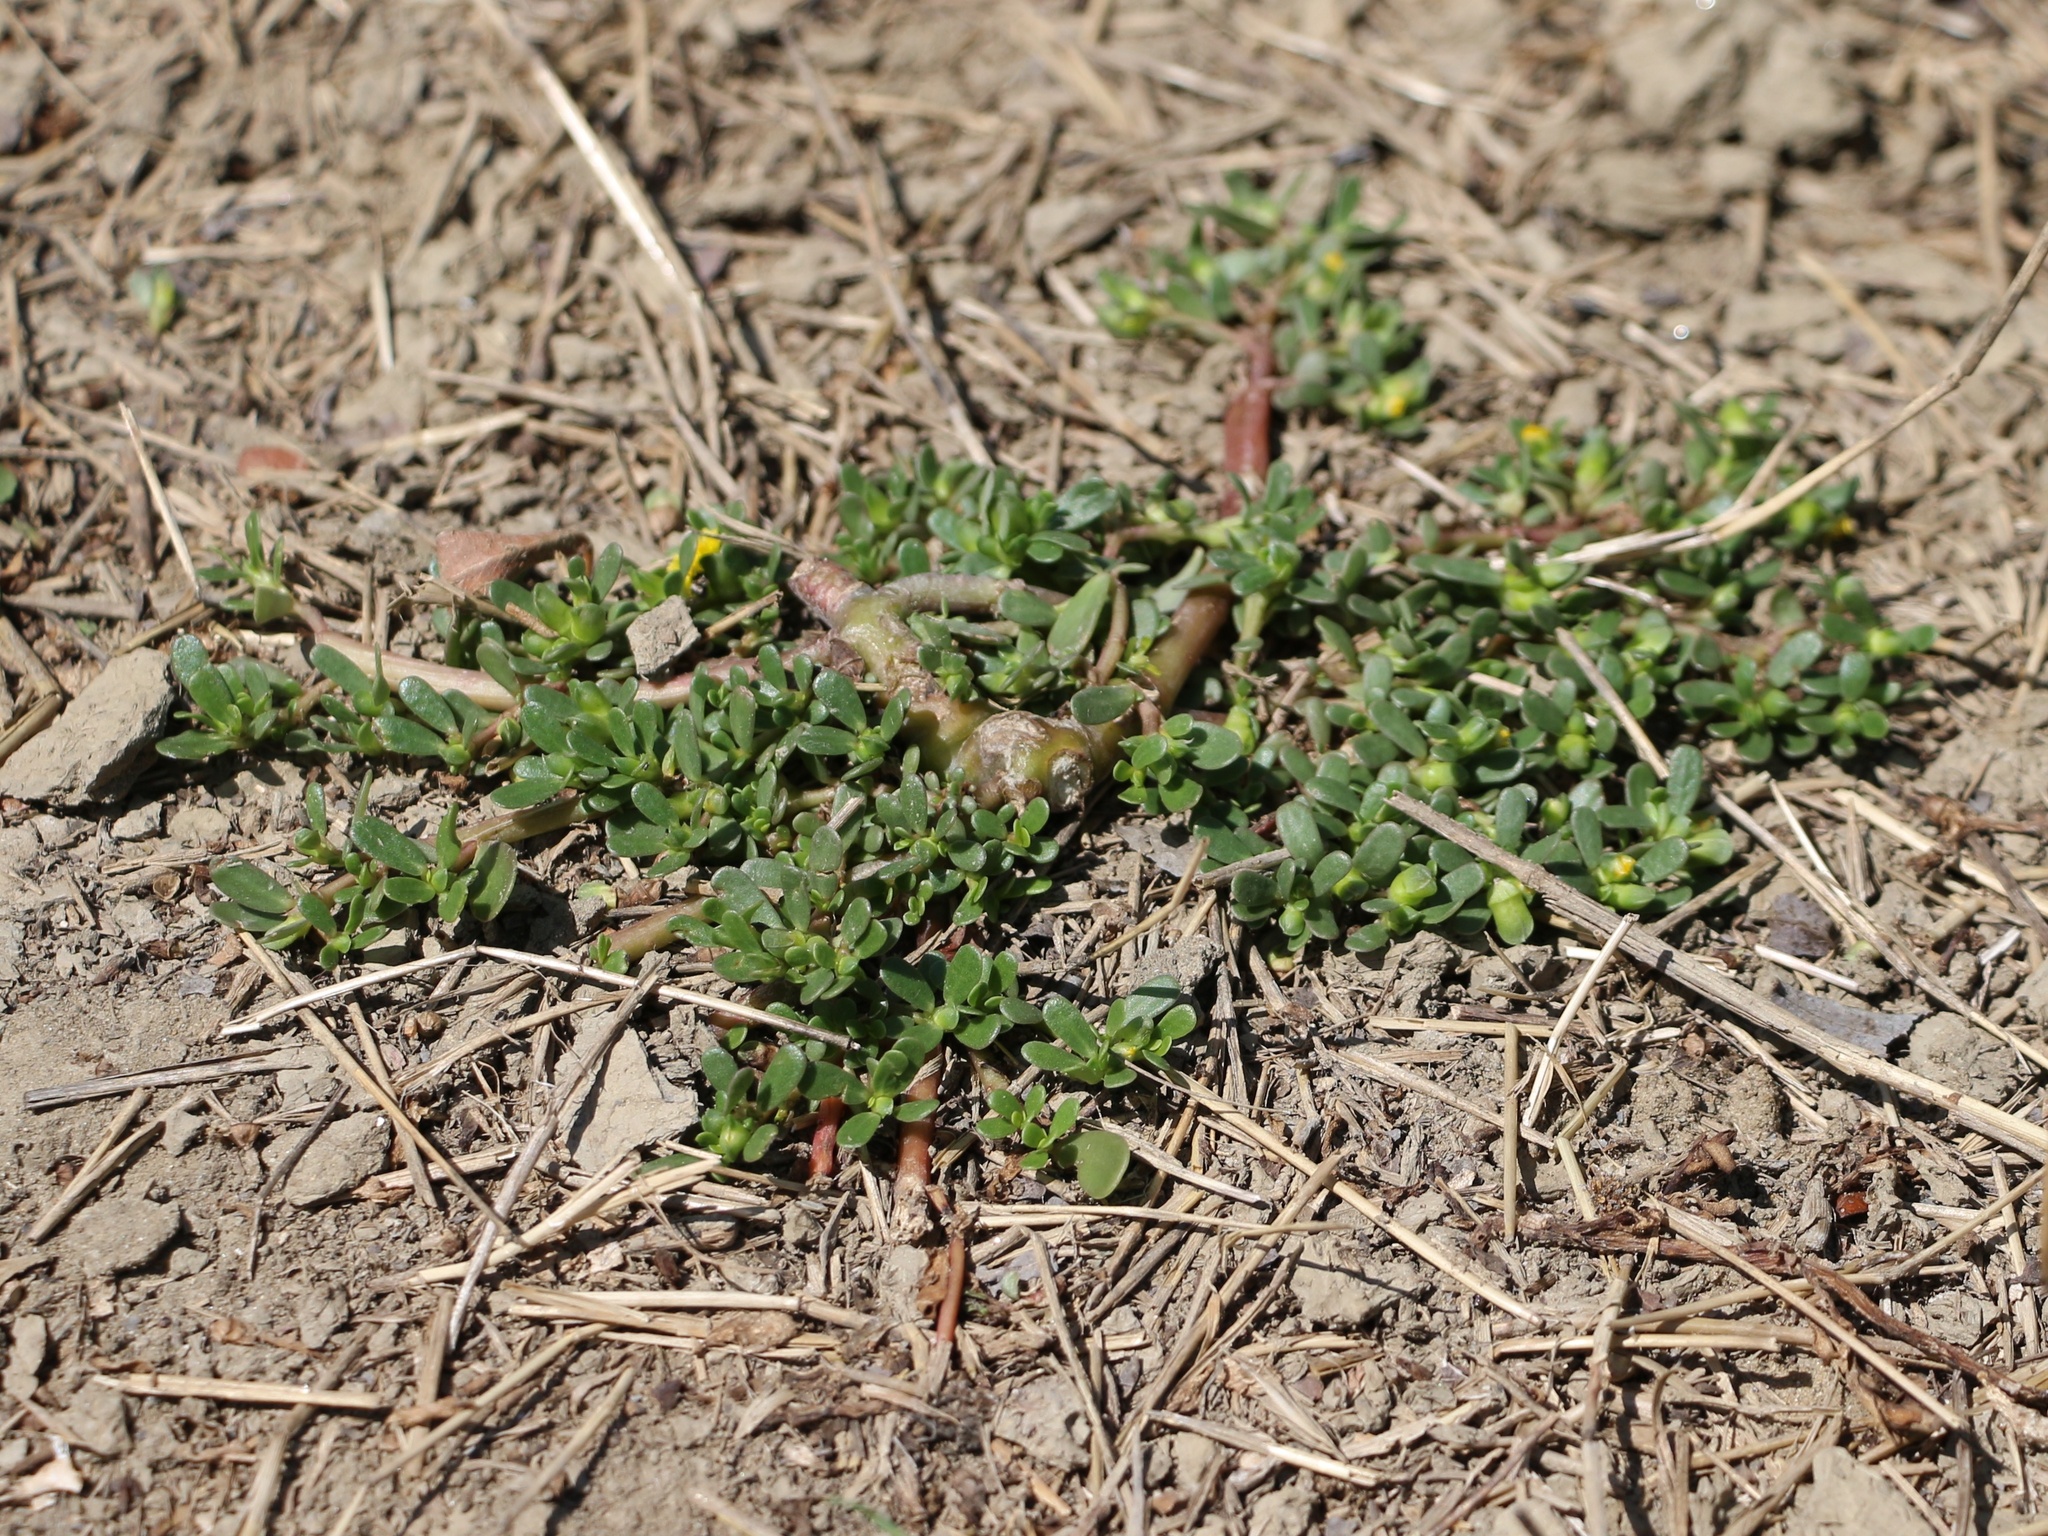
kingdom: Plantae
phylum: Tracheophyta
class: Magnoliopsida
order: Caryophyllales
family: Portulacaceae
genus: Portulaca
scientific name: Portulaca oleracea
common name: Common purslane
